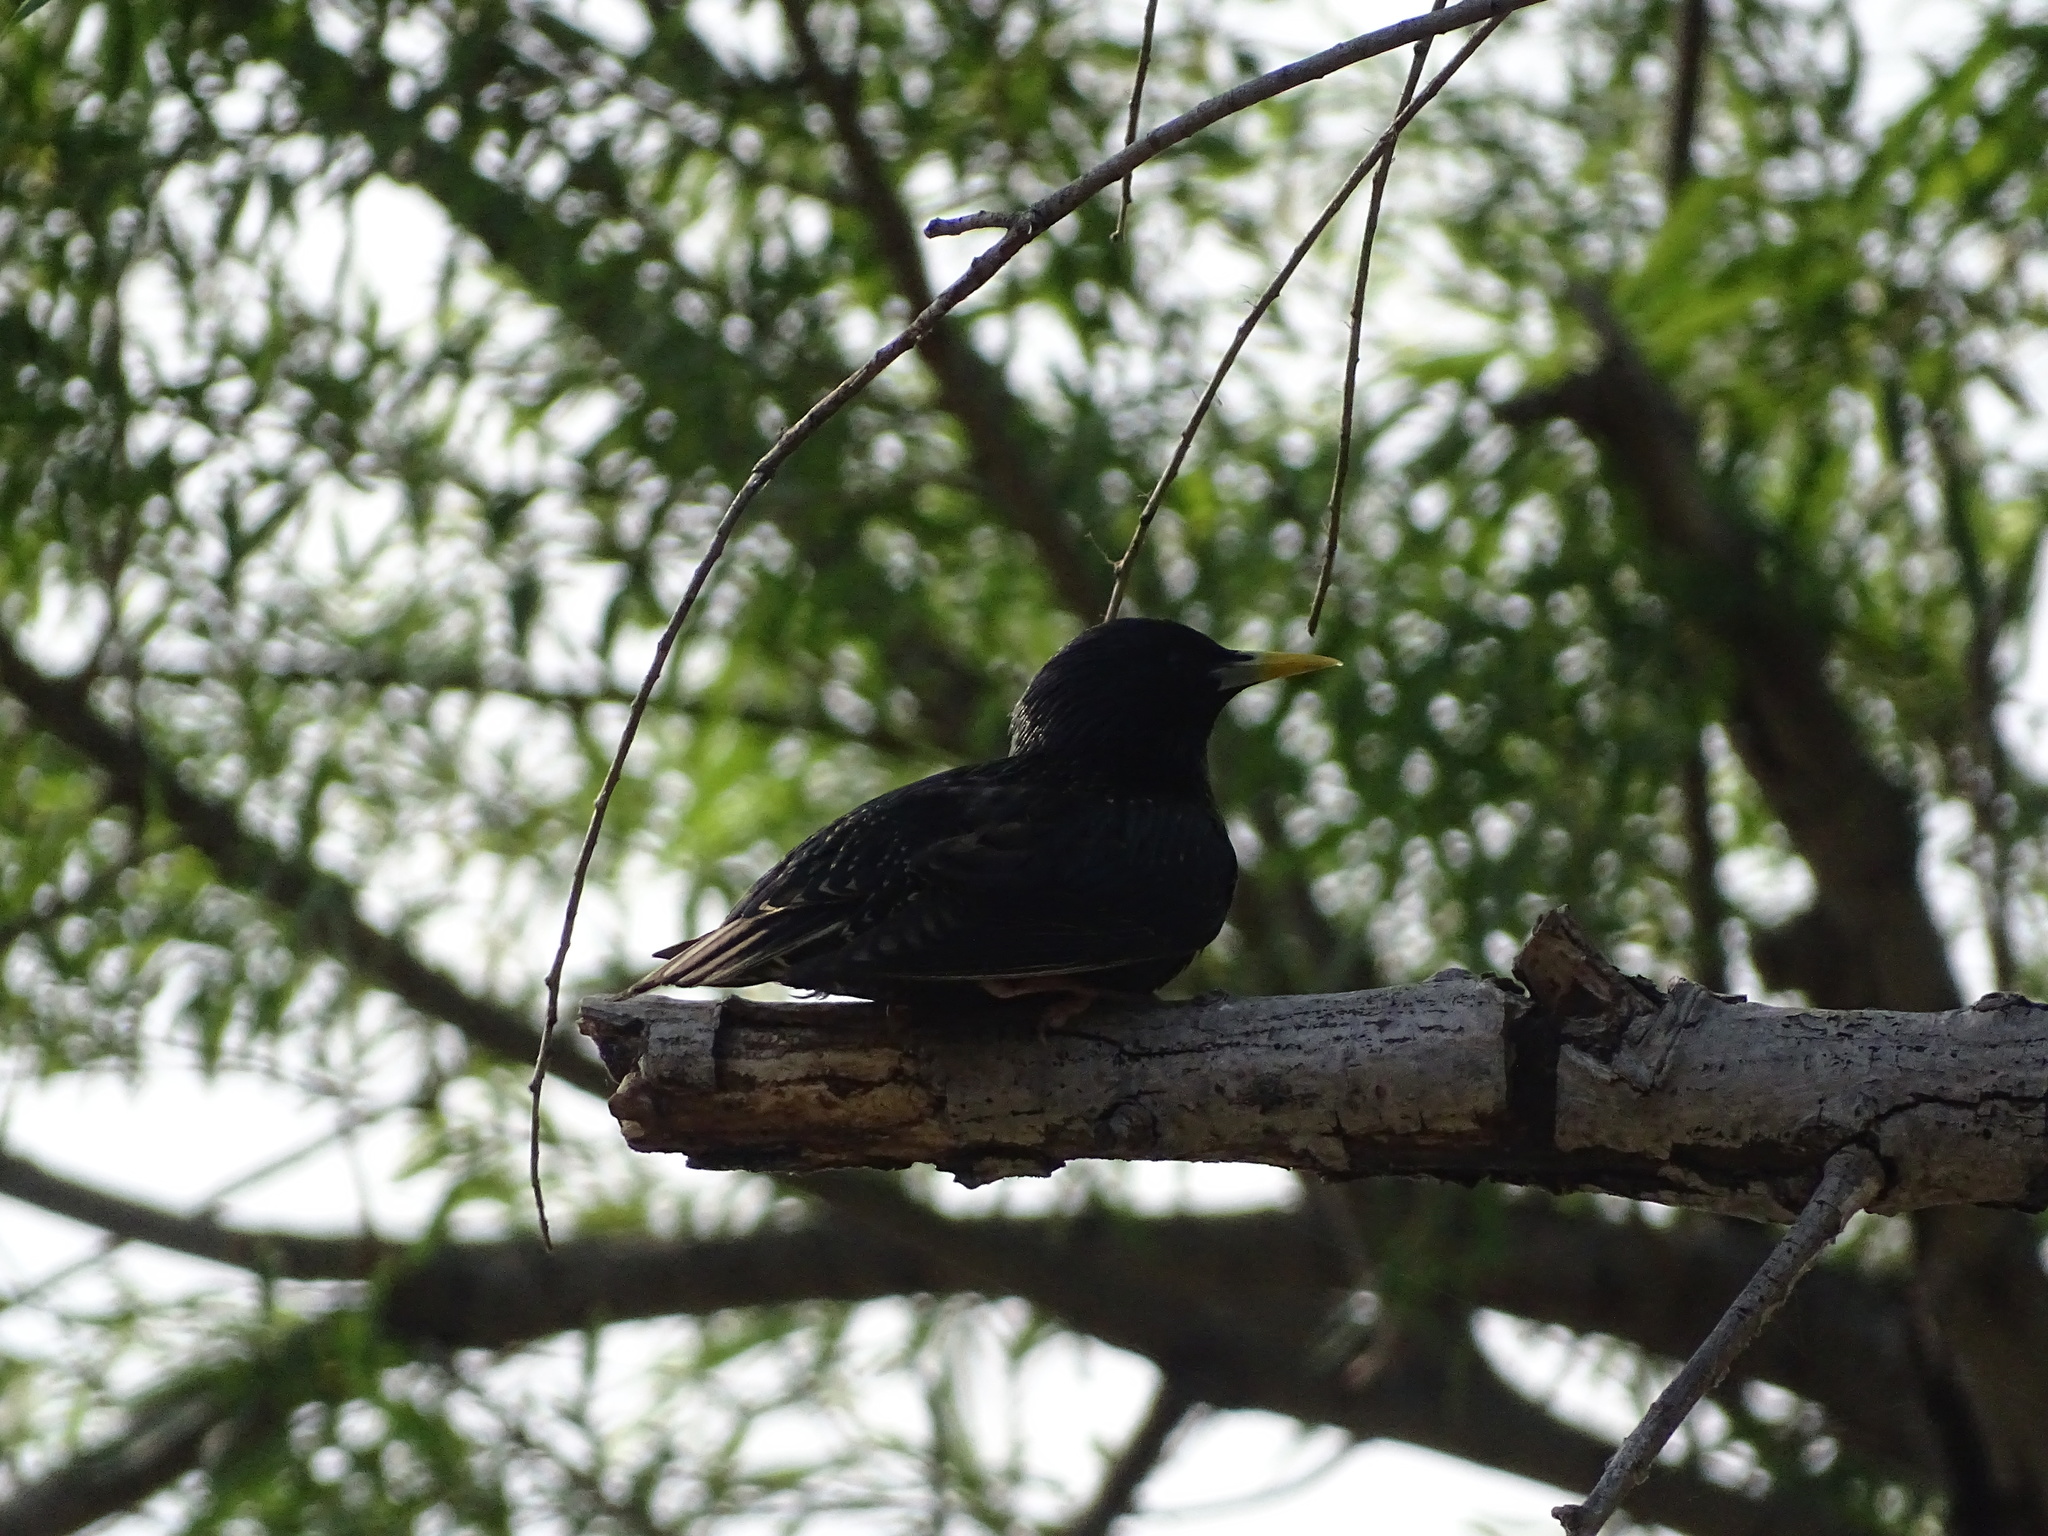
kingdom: Animalia
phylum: Chordata
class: Aves
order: Passeriformes
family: Sturnidae
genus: Sturnus
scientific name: Sturnus vulgaris
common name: Common starling
